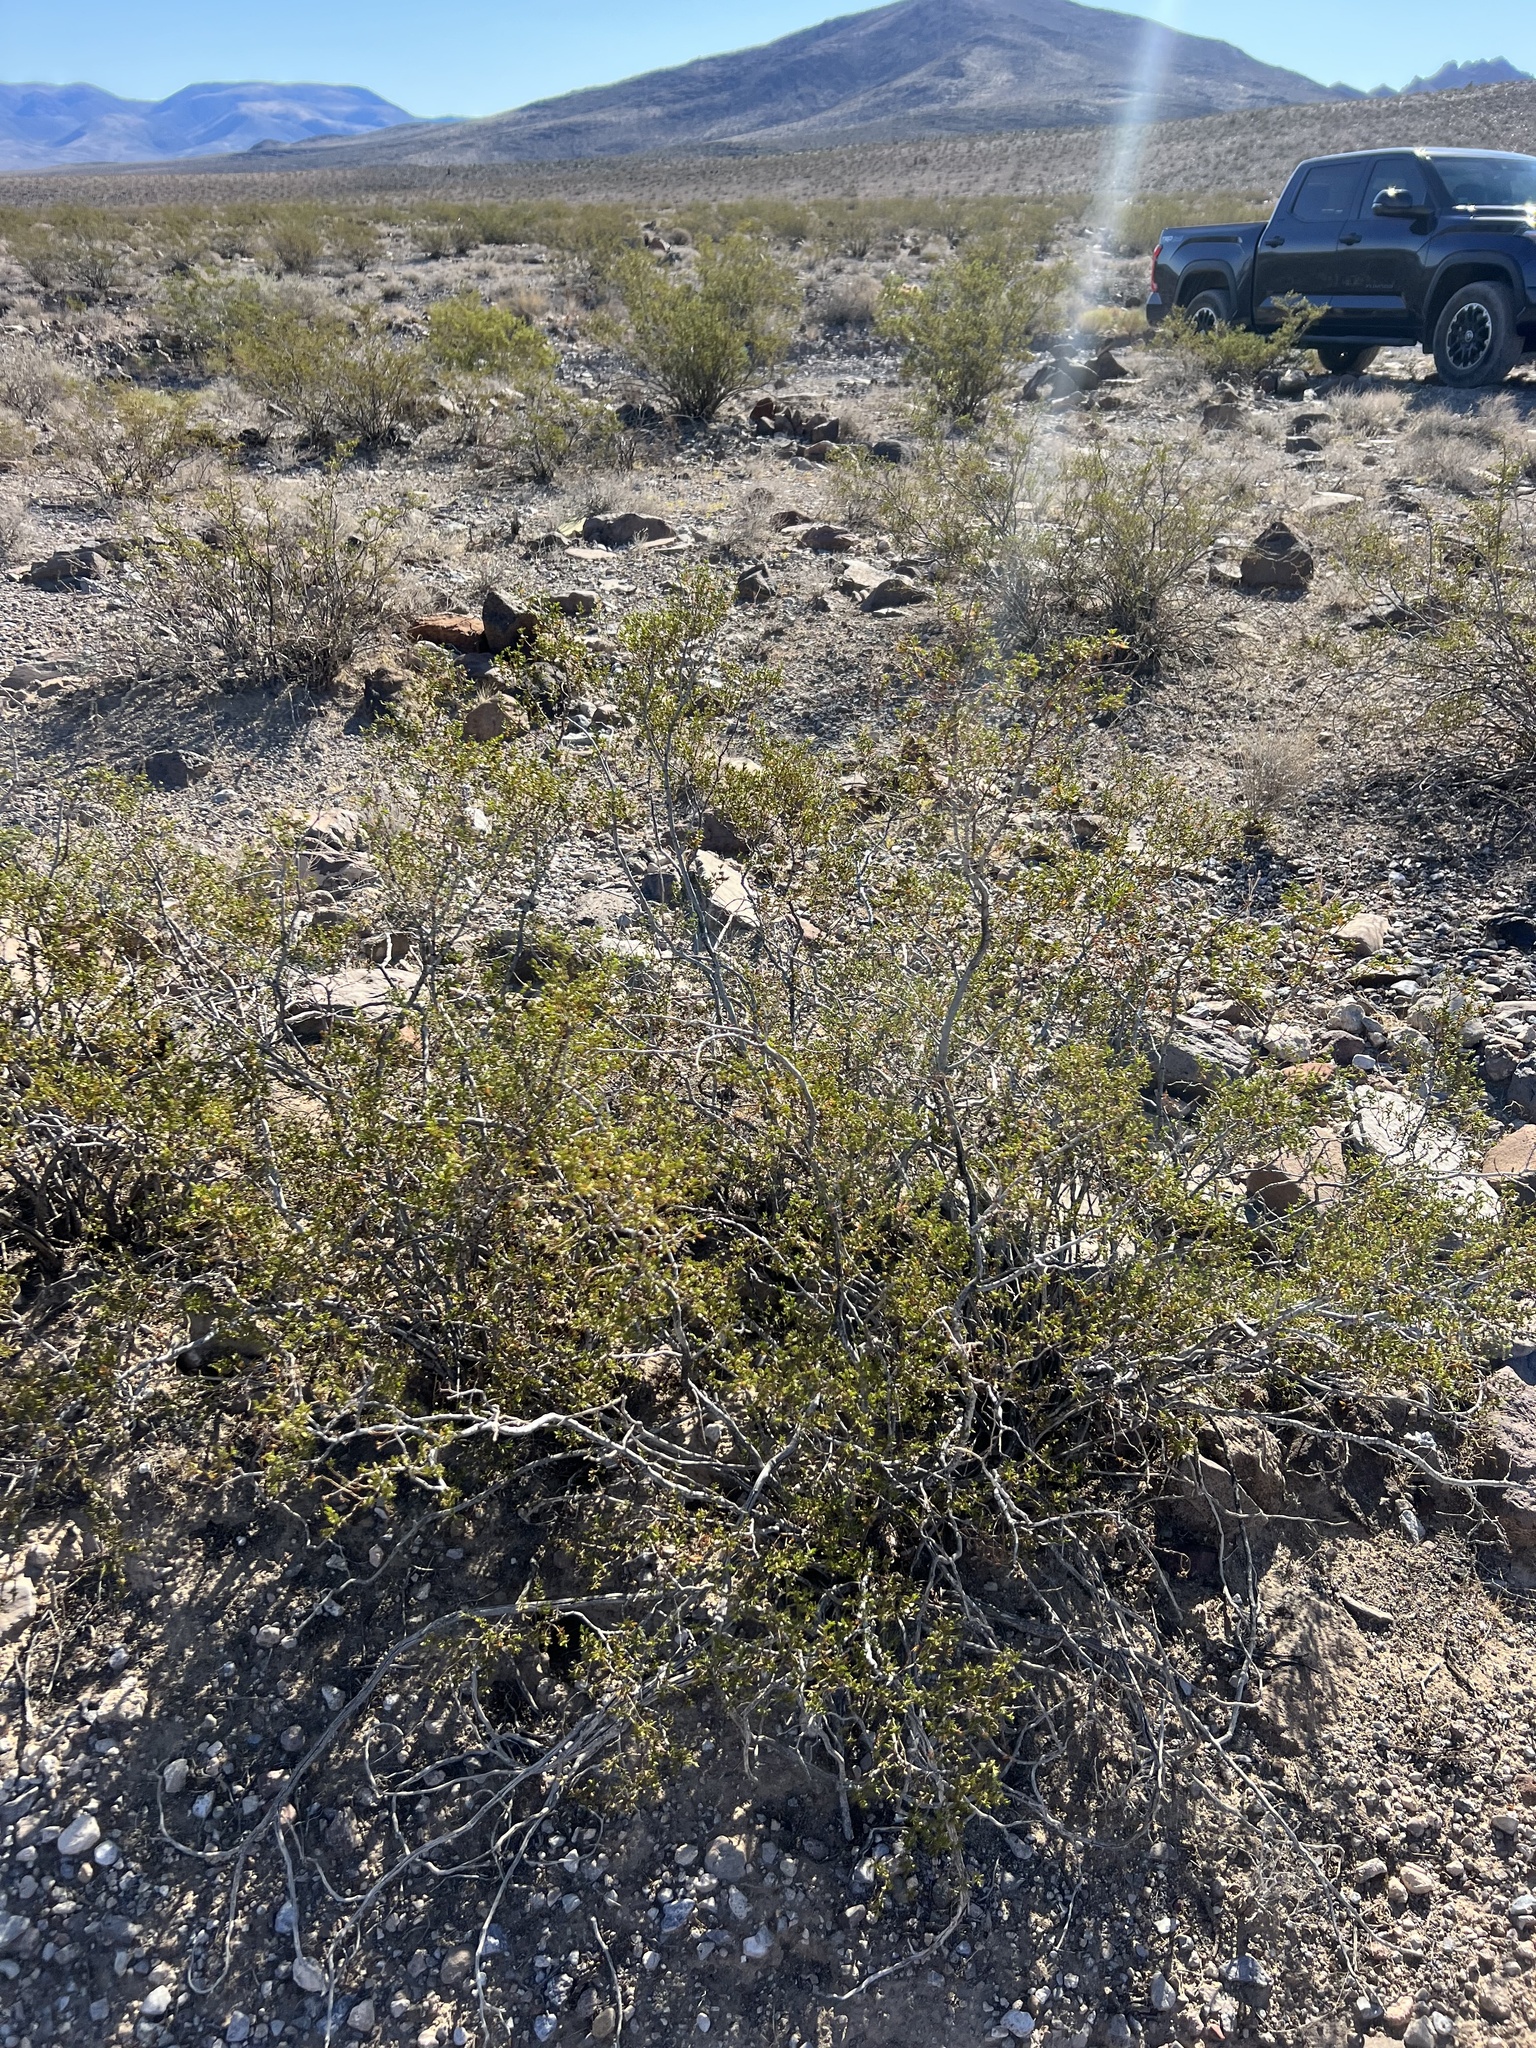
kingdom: Plantae
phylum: Tracheophyta
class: Magnoliopsida
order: Zygophyllales
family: Zygophyllaceae
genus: Larrea
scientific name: Larrea tridentata
